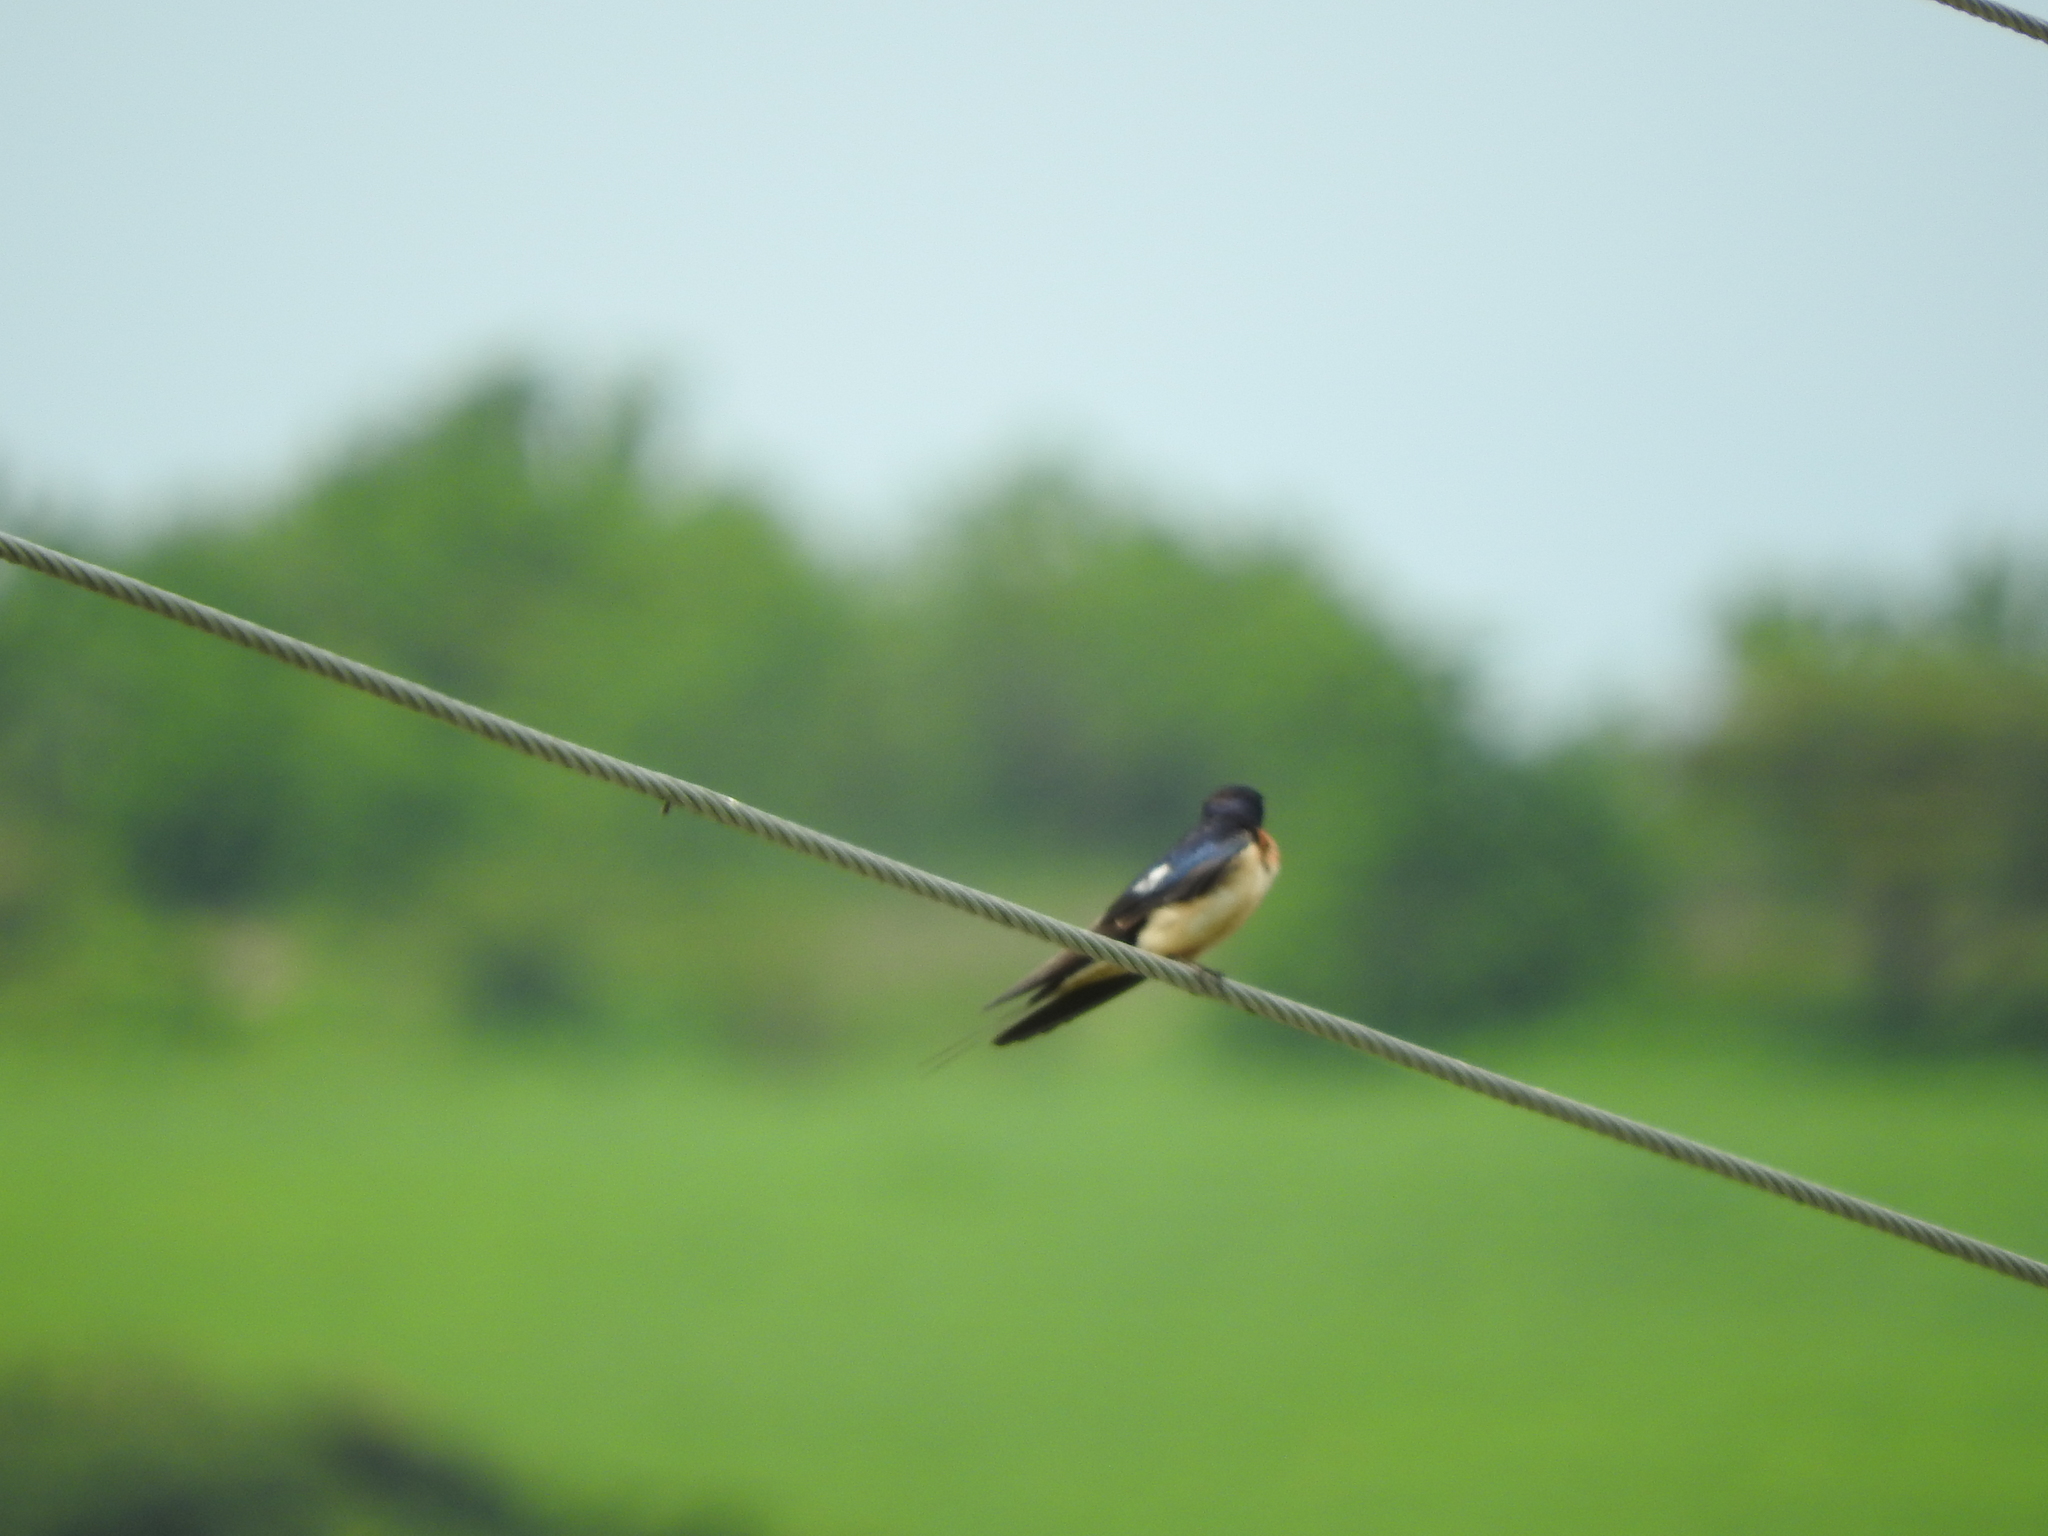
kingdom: Animalia
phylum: Chordata
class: Aves
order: Passeriformes
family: Hirundinidae
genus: Hirundo
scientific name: Hirundo rustica
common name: Barn swallow
